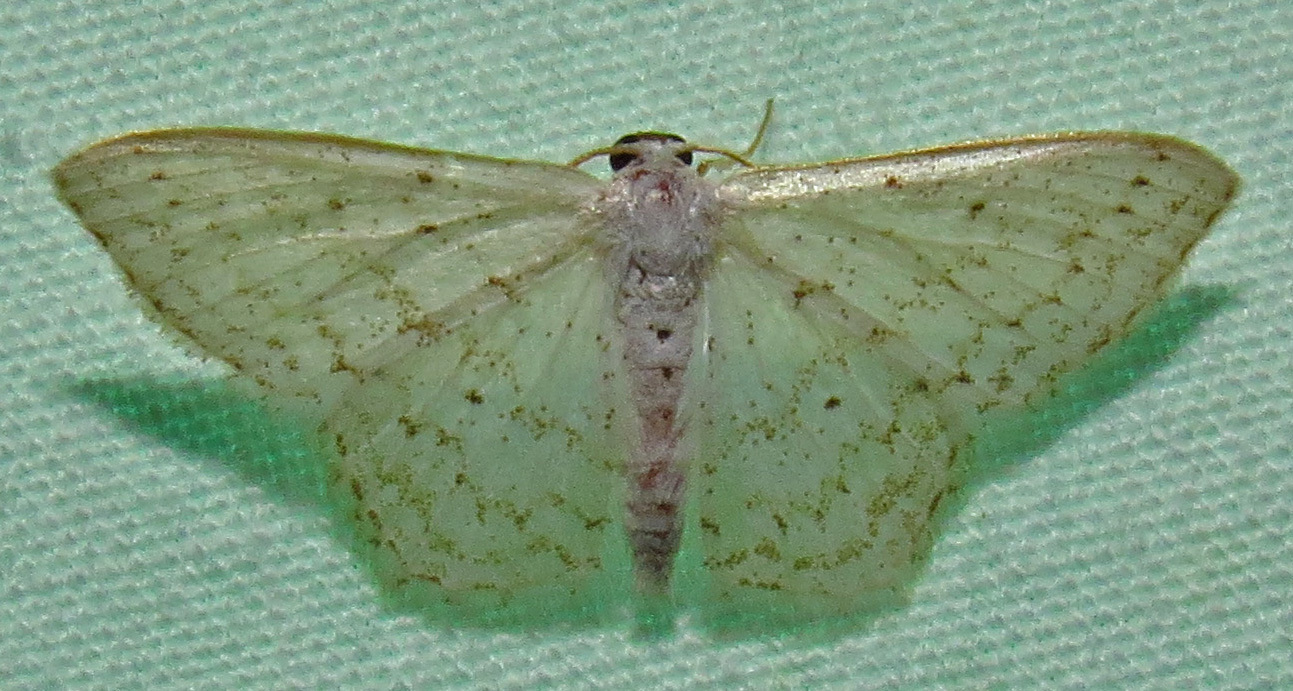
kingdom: Animalia
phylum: Arthropoda
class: Insecta
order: Lepidoptera
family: Geometridae
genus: Idaea
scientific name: Idaea tacturata
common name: Dot-lined wave
